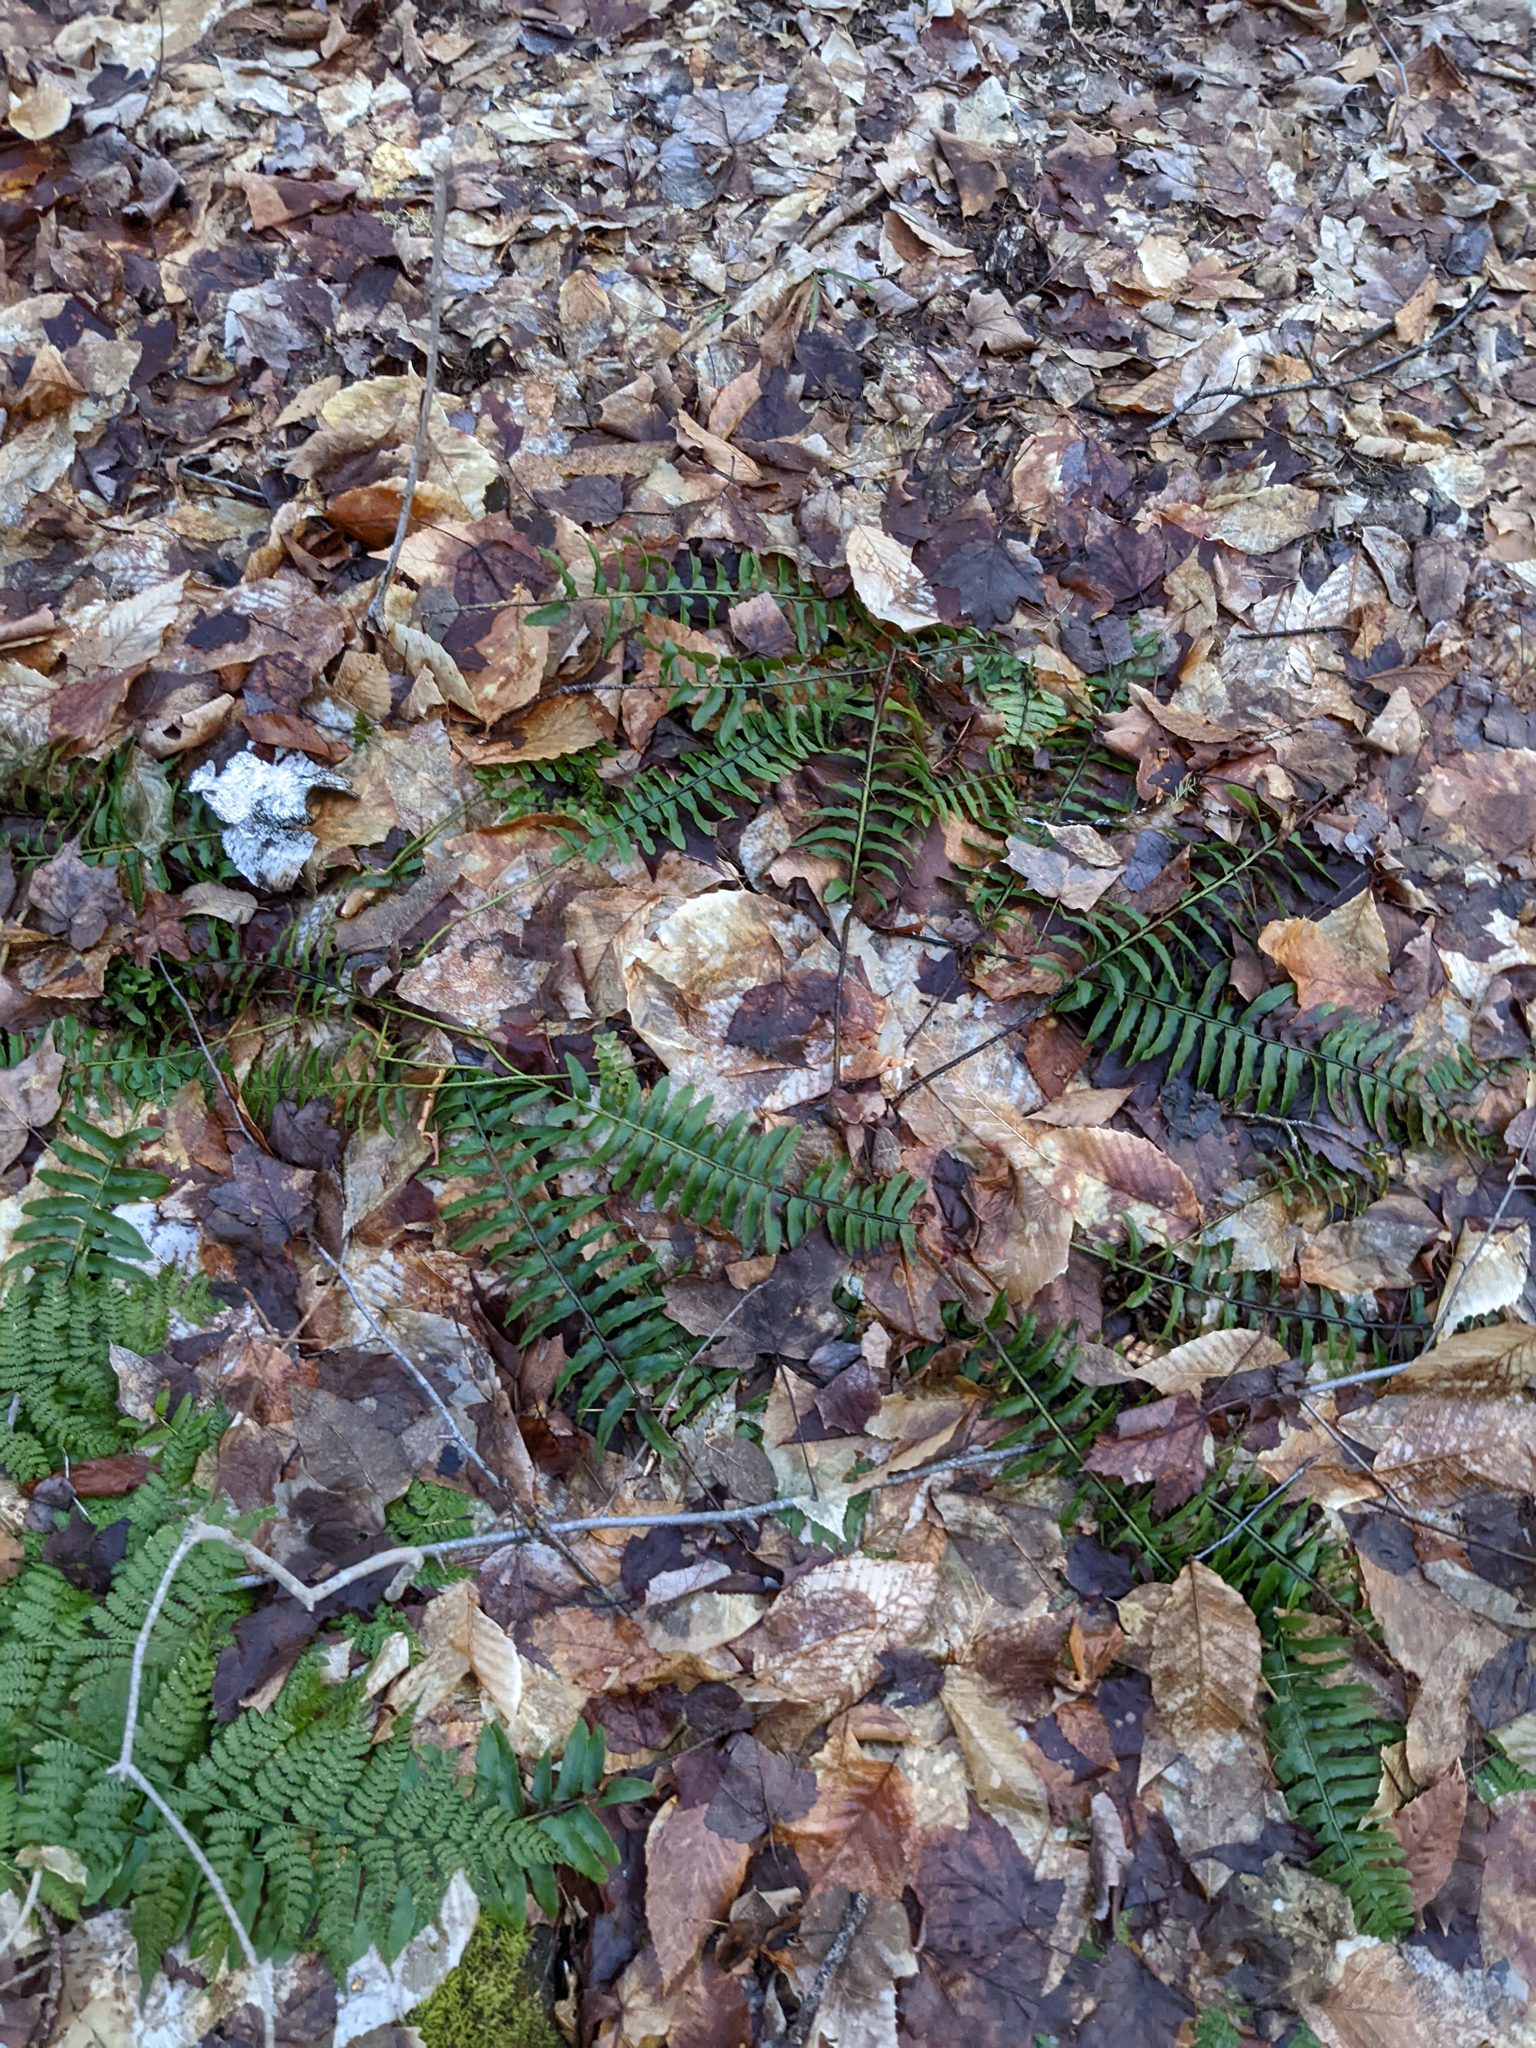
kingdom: Plantae
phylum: Tracheophyta
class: Polypodiopsida
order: Polypodiales
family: Dryopteridaceae
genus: Polystichum
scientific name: Polystichum acrostichoides
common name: Christmas fern
